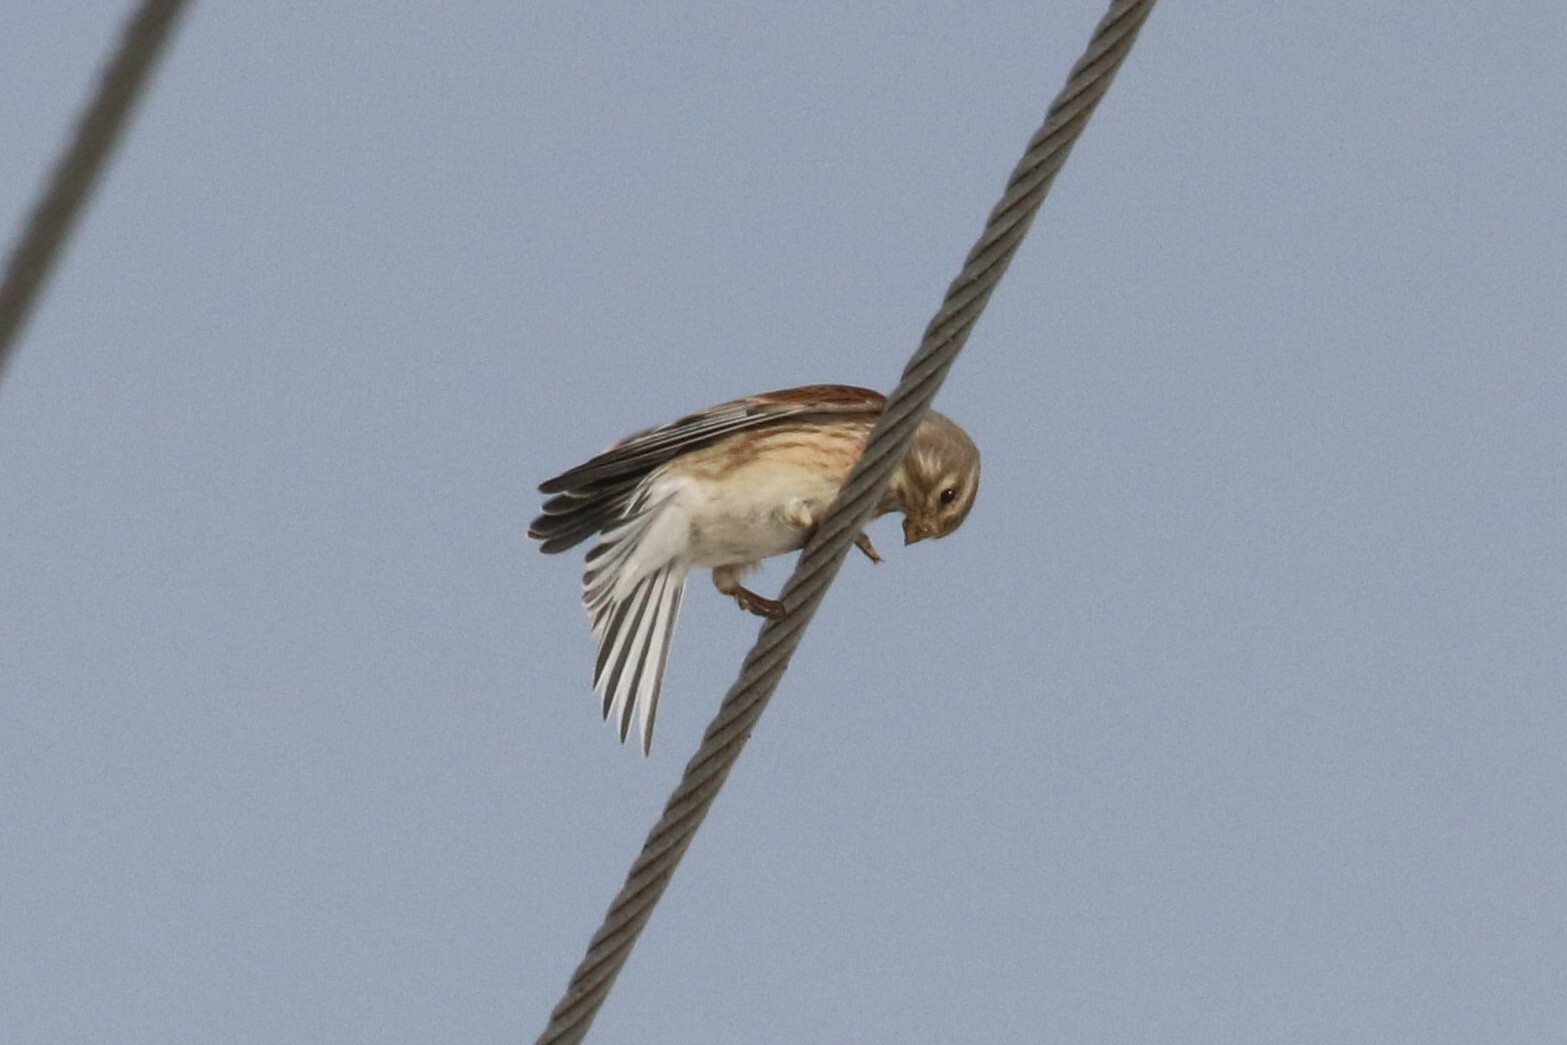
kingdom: Animalia
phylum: Chordata
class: Aves
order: Passeriformes
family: Fringillidae
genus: Linaria
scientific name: Linaria cannabina
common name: Common linnet
